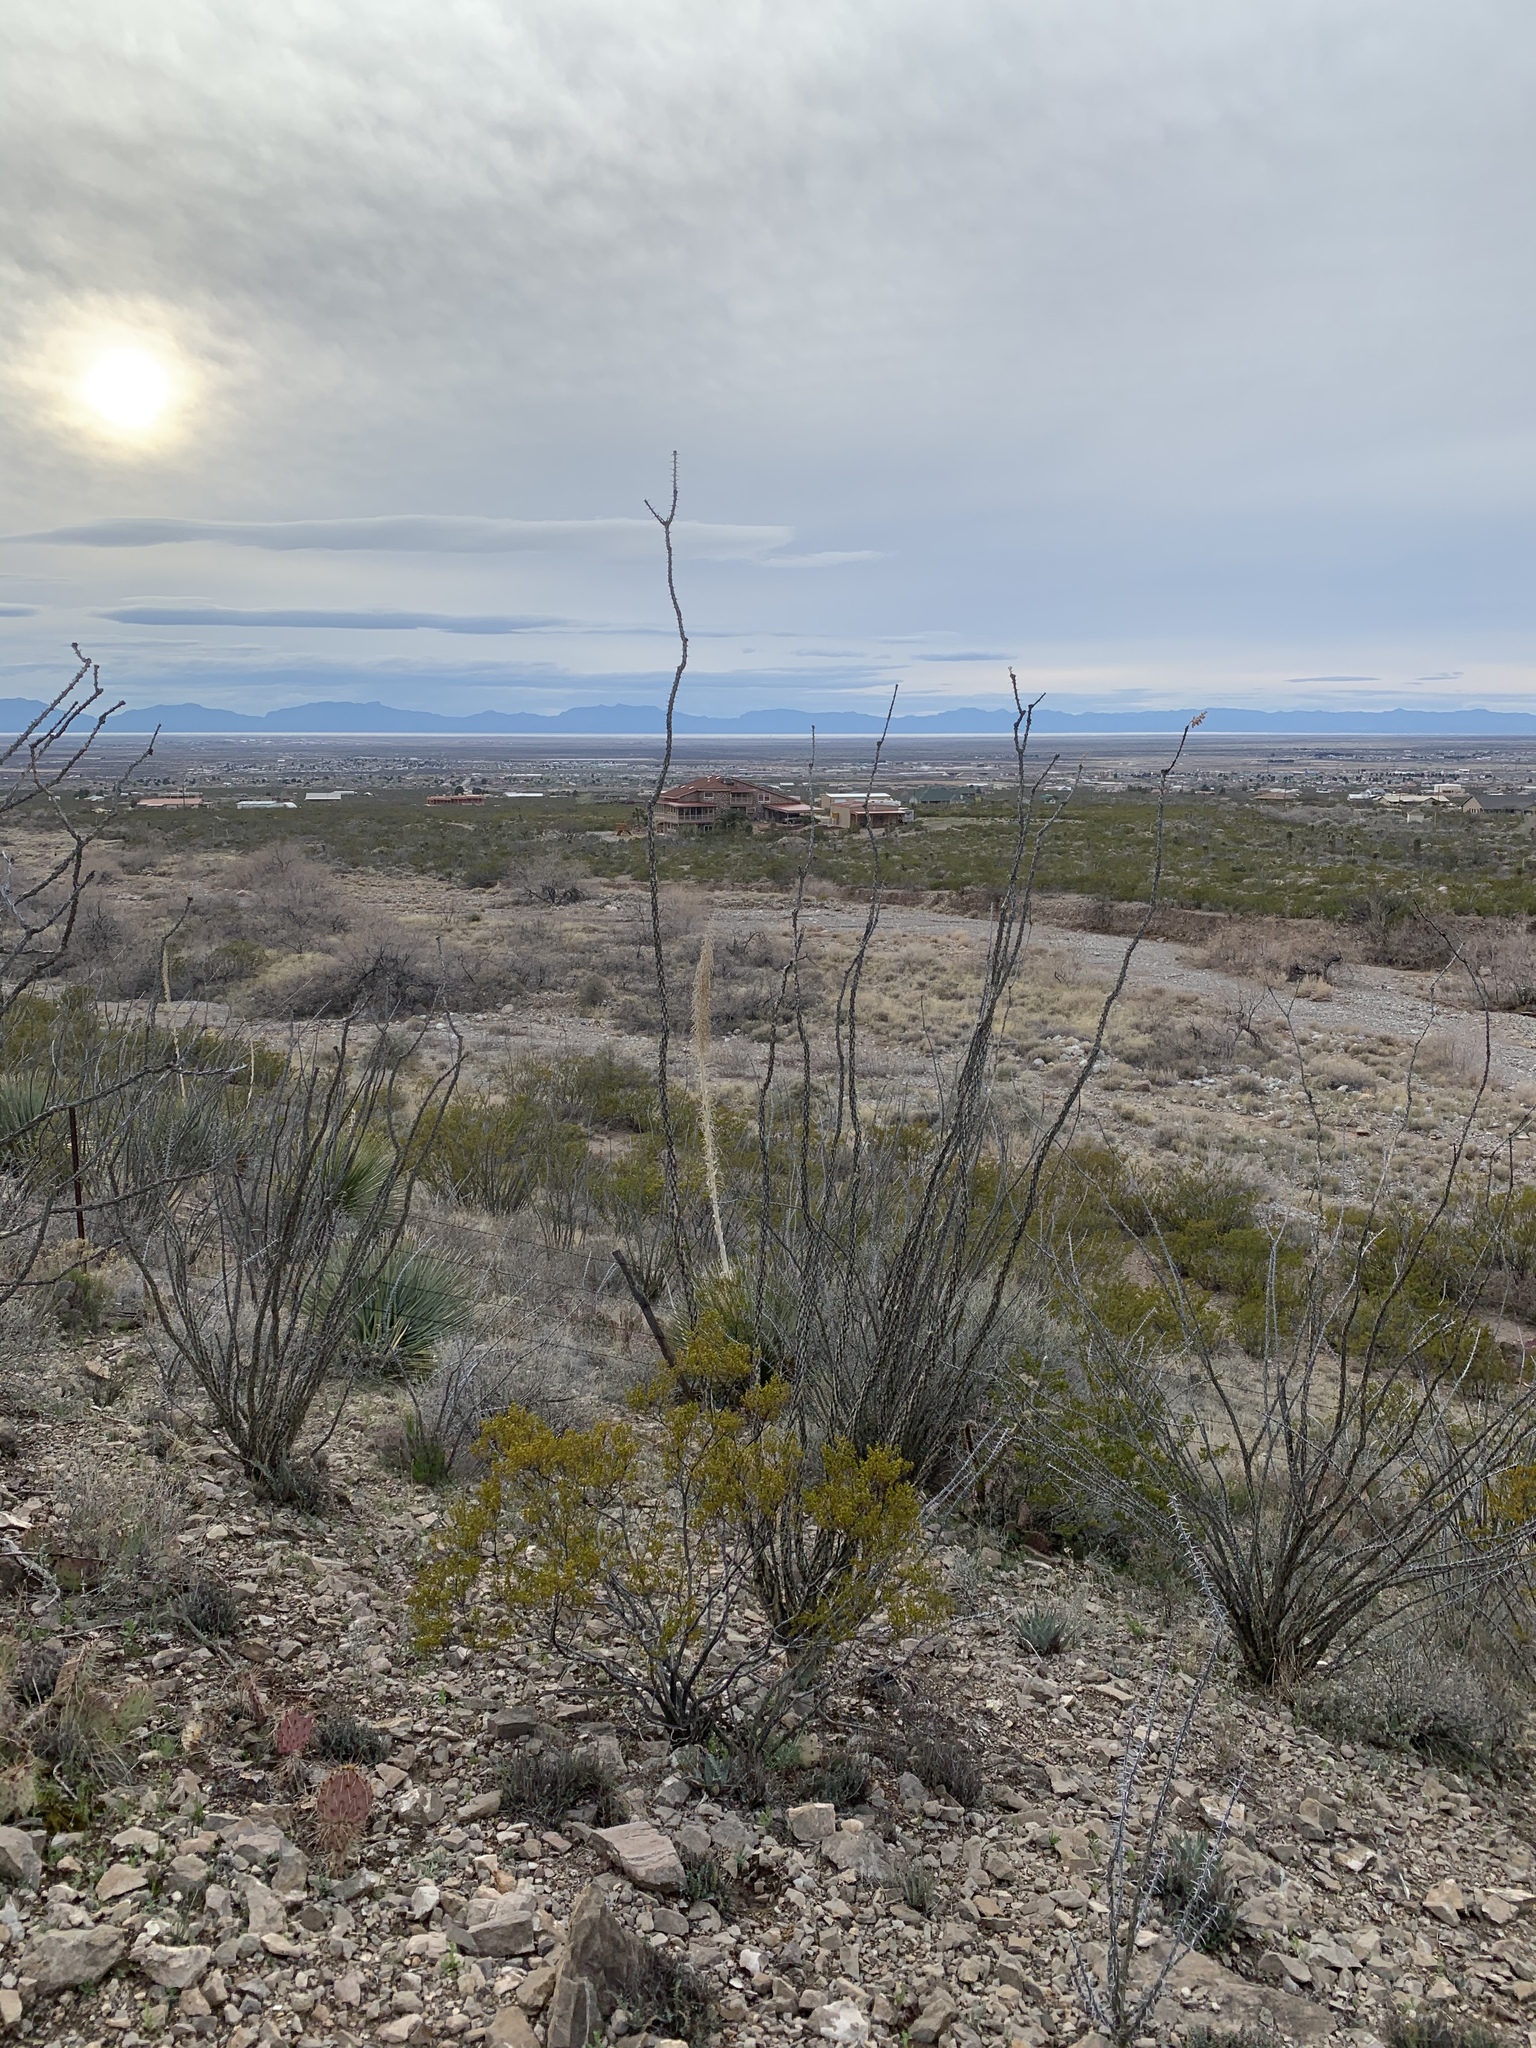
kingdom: Plantae
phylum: Tracheophyta
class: Magnoliopsida
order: Ericales
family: Fouquieriaceae
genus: Fouquieria
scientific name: Fouquieria splendens
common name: Vine-cactus
